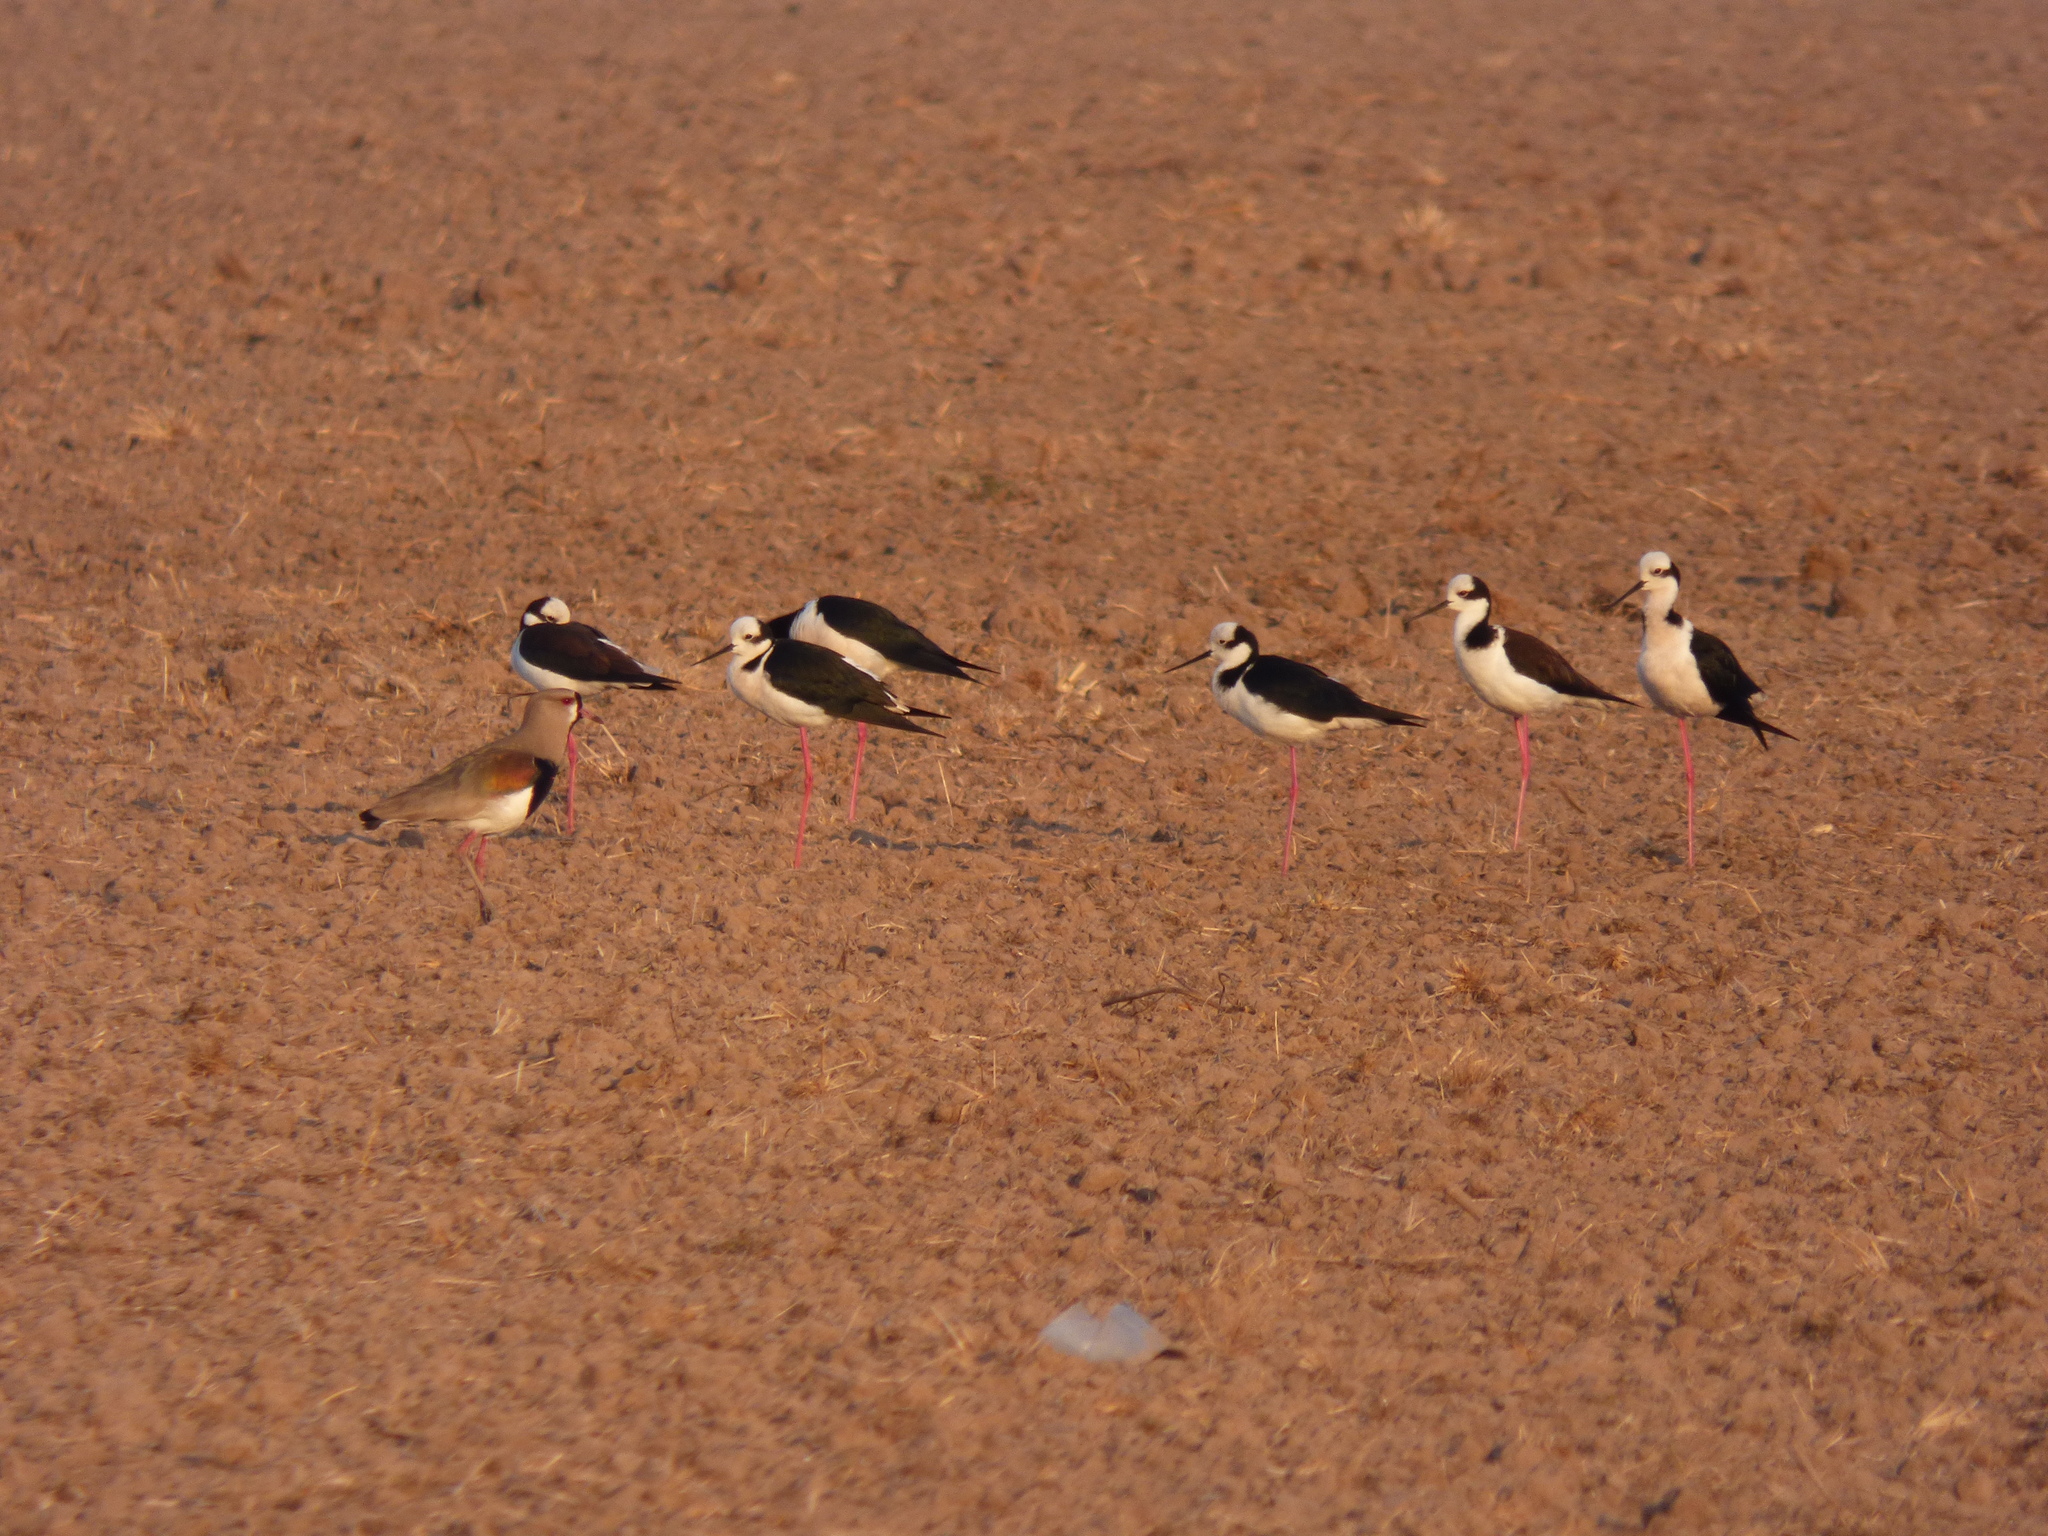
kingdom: Animalia
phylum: Chordata
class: Aves
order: Charadriiformes
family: Recurvirostridae
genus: Himantopus
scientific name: Himantopus mexicanus
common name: Black-necked stilt
